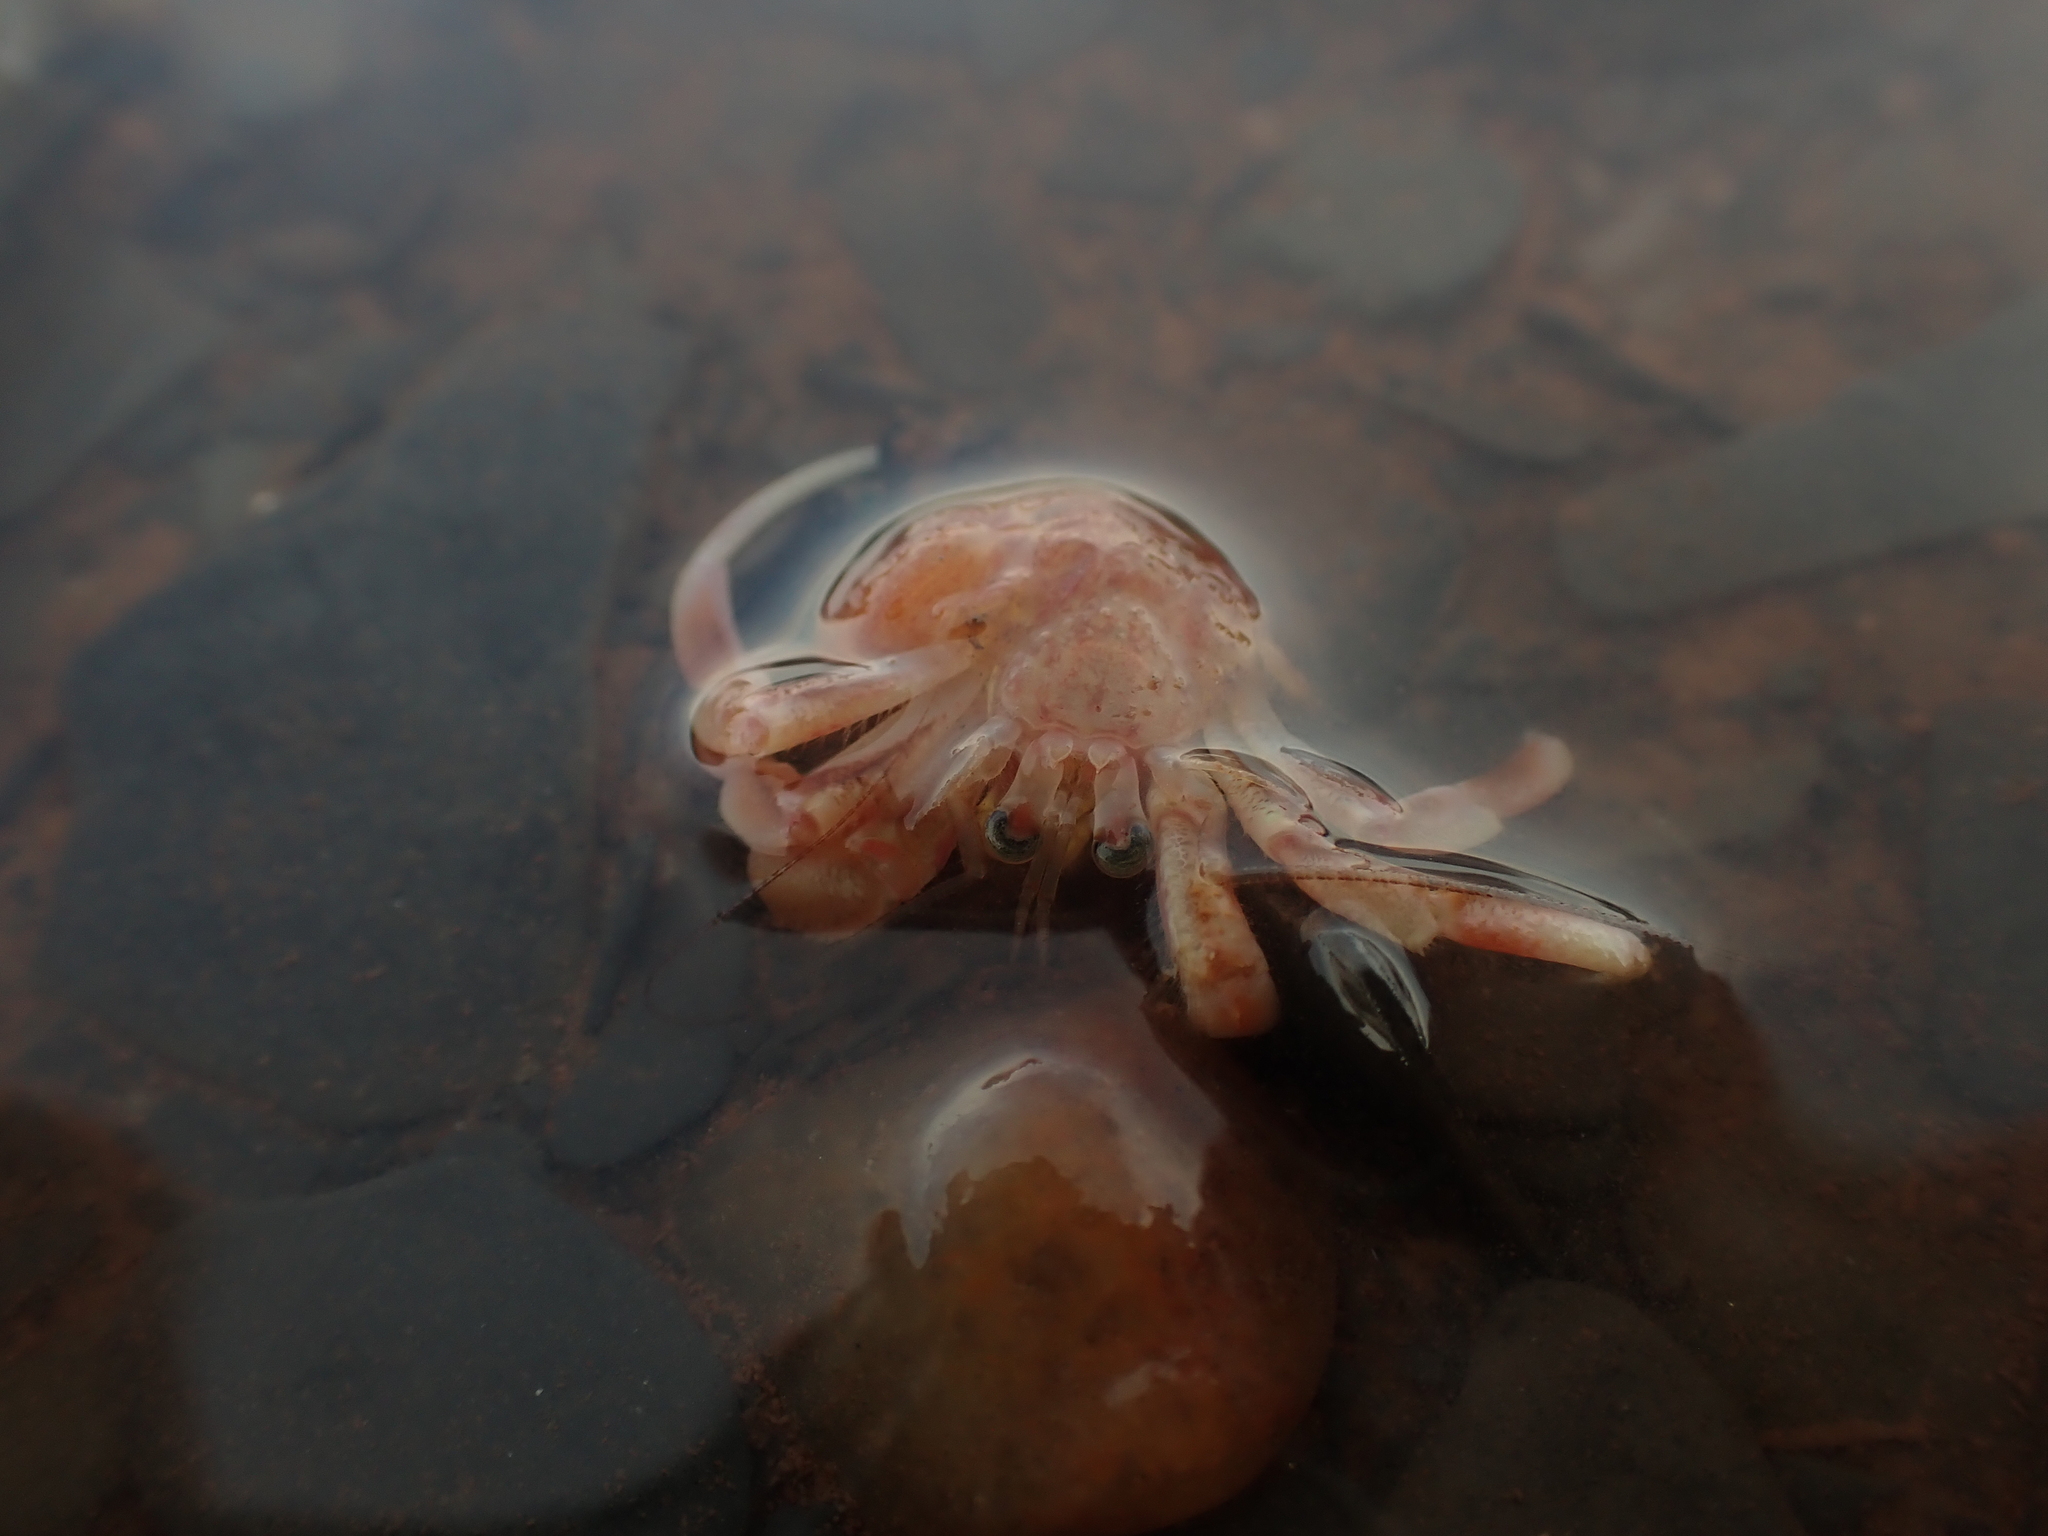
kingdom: Animalia
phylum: Arthropoda
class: Malacostraca
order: Decapoda
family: Paguridae
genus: Pagurus
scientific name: Pagurus longicarpus
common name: Long-armed hermit crab
